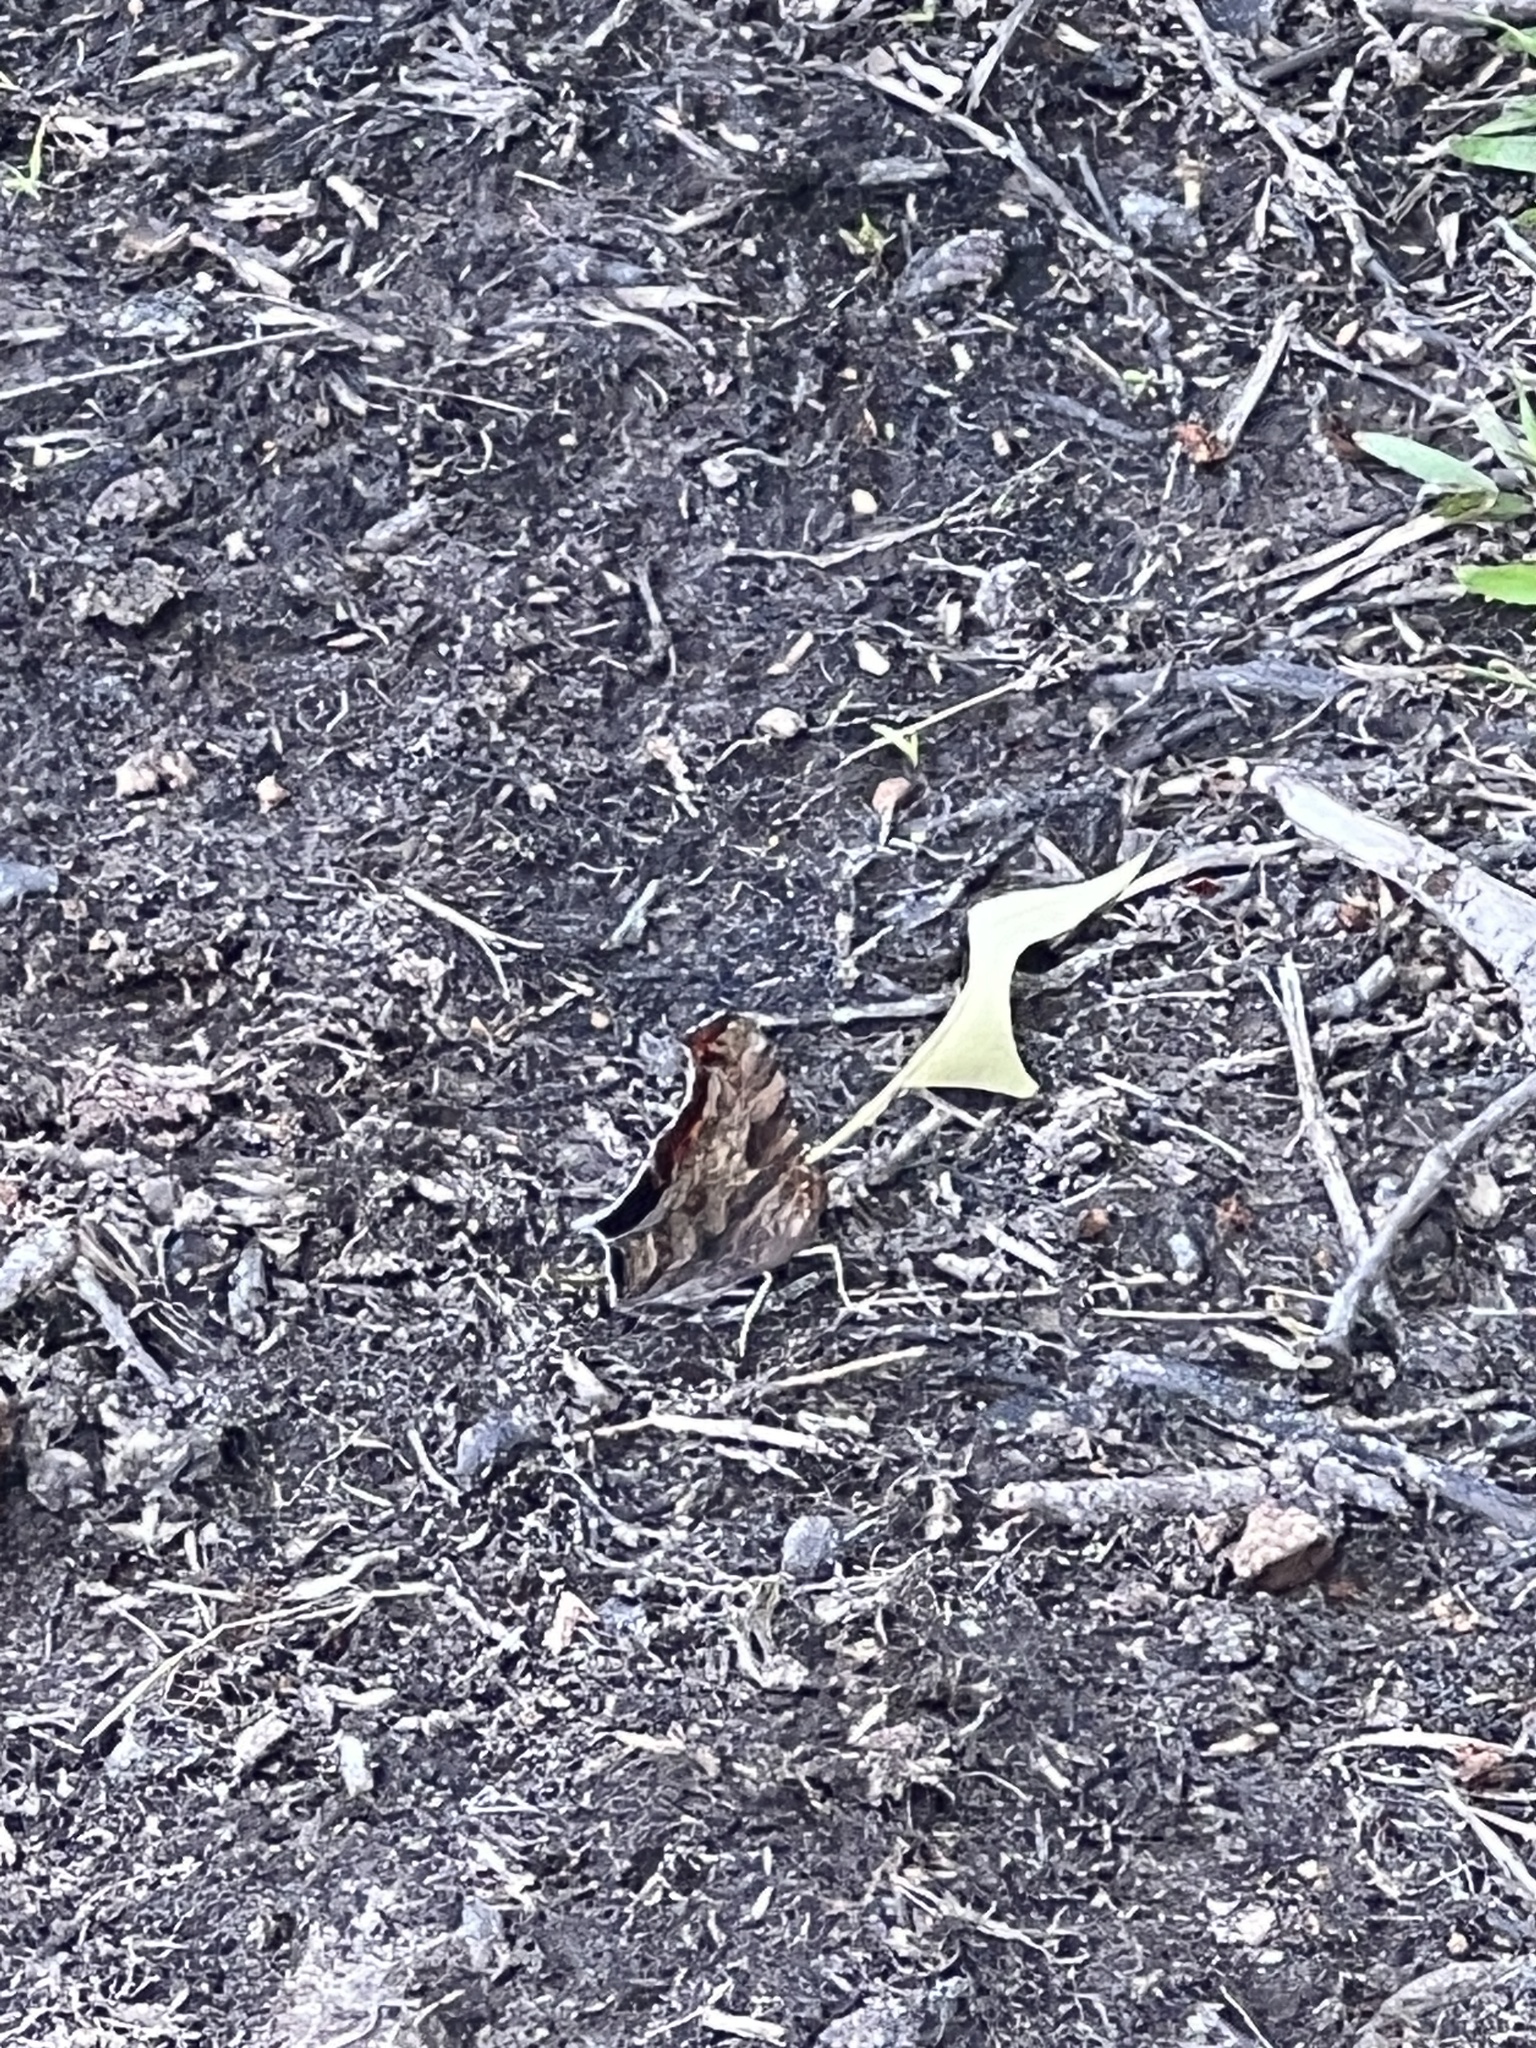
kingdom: Animalia
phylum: Arthropoda
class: Insecta
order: Lepidoptera
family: Nymphalidae
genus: Polygonia
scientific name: Polygonia interrogationis
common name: Question mark
